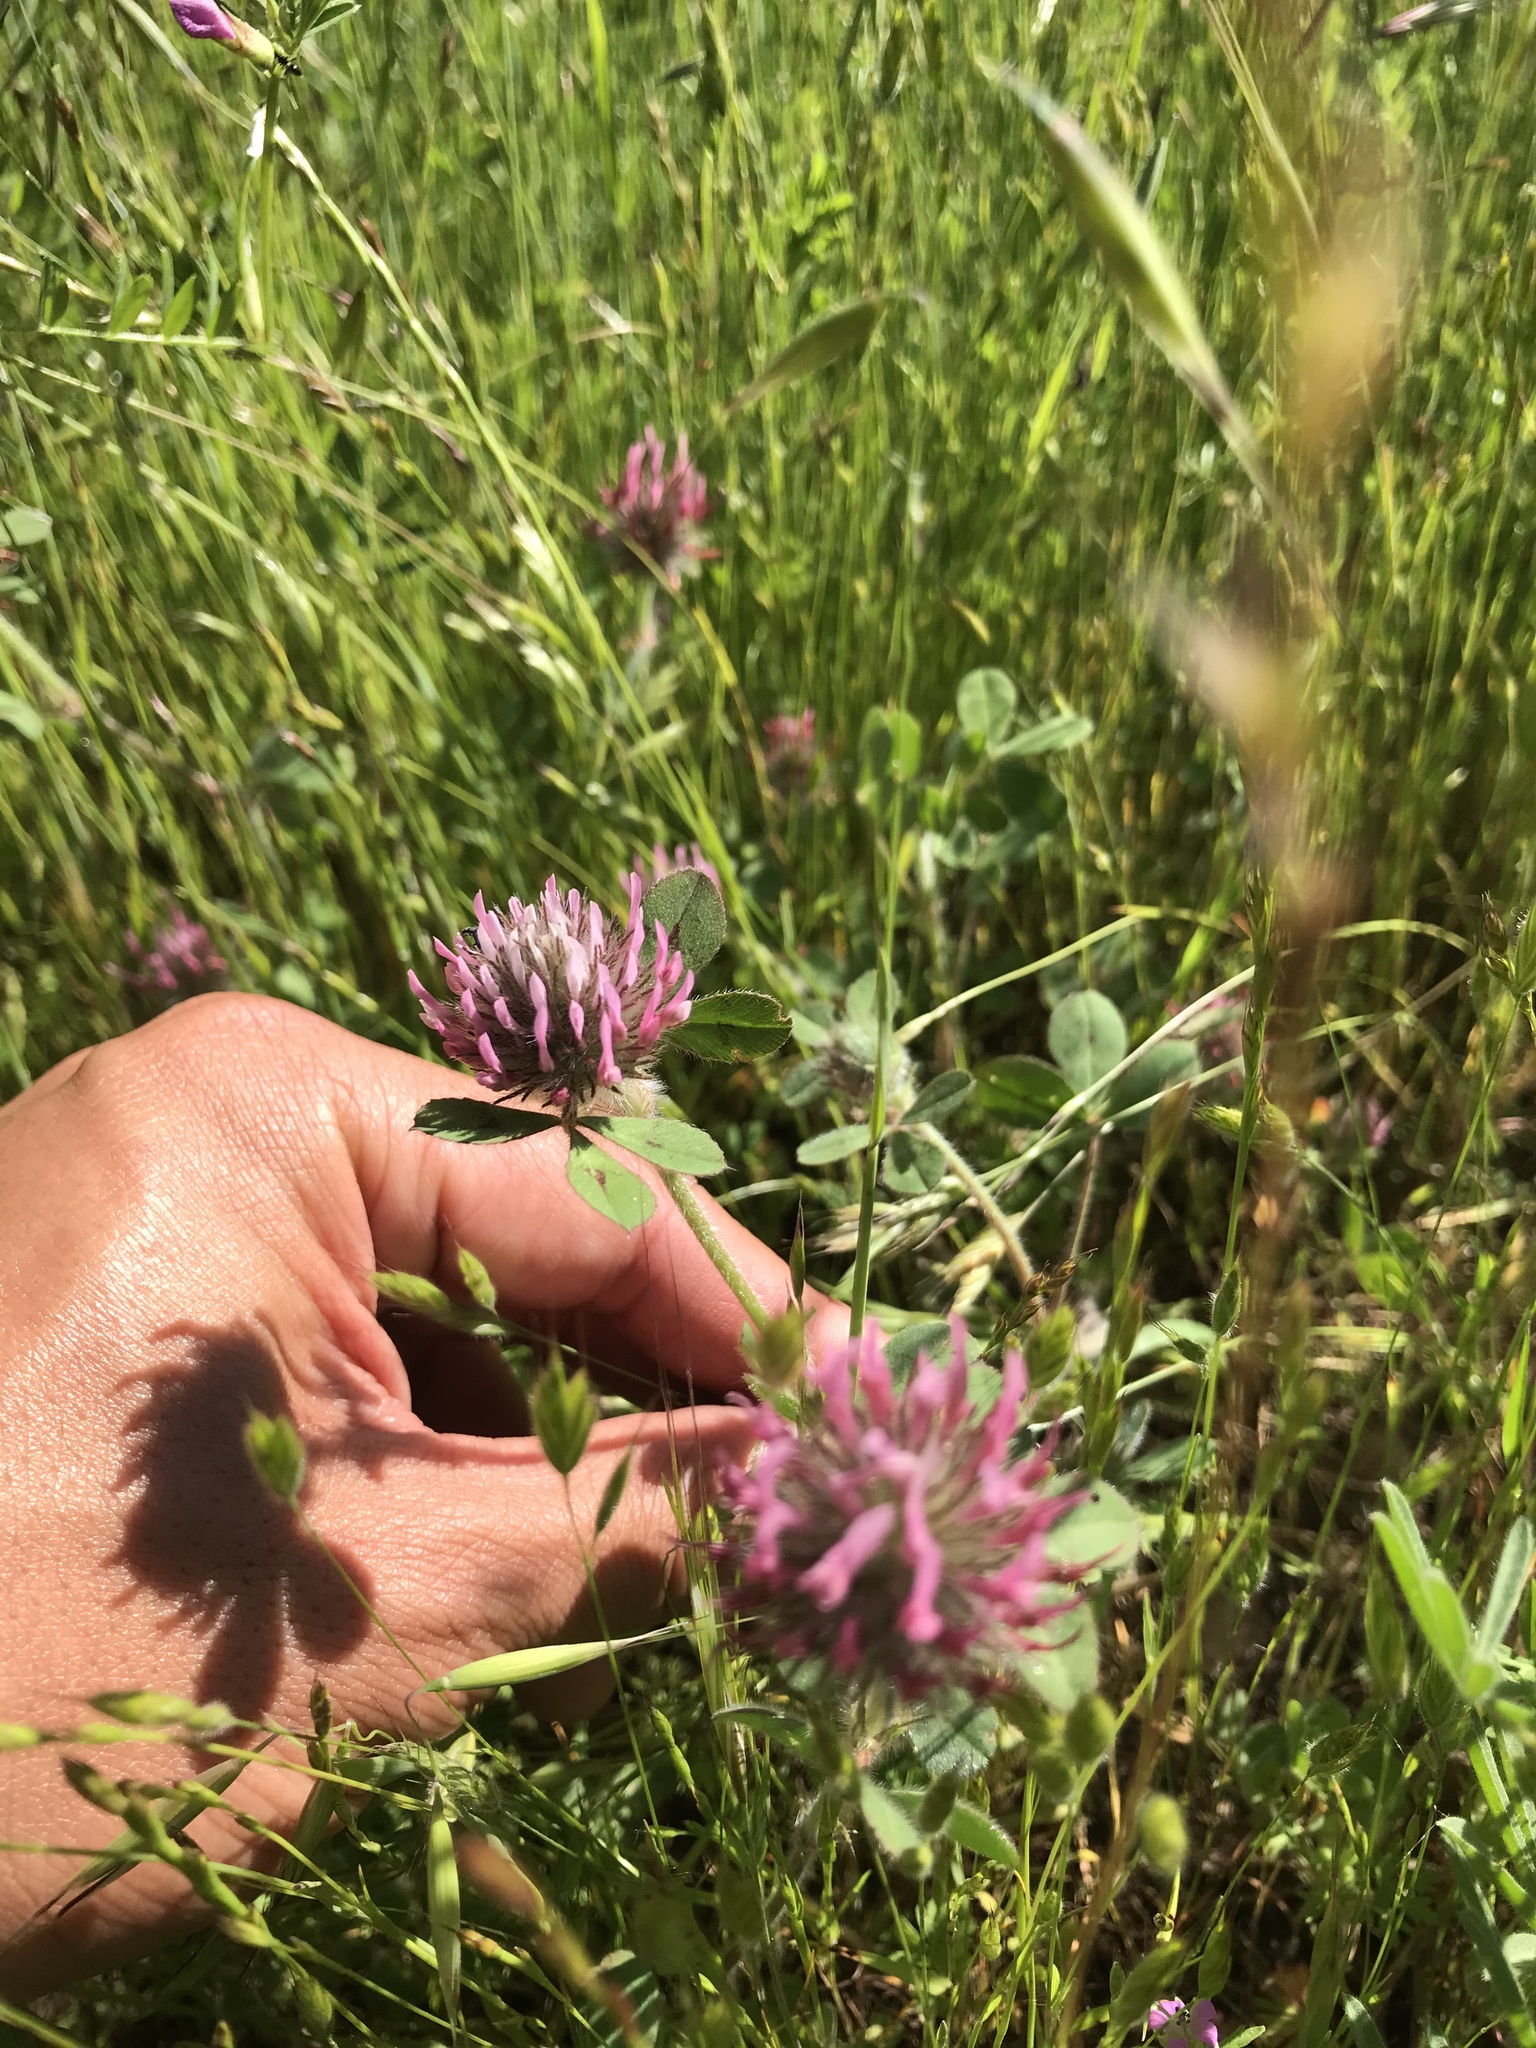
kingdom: Plantae
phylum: Tracheophyta
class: Magnoliopsida
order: Fabales
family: Fabaceae
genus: Trifolium
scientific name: Trifolium hirtum
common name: Rose clover
